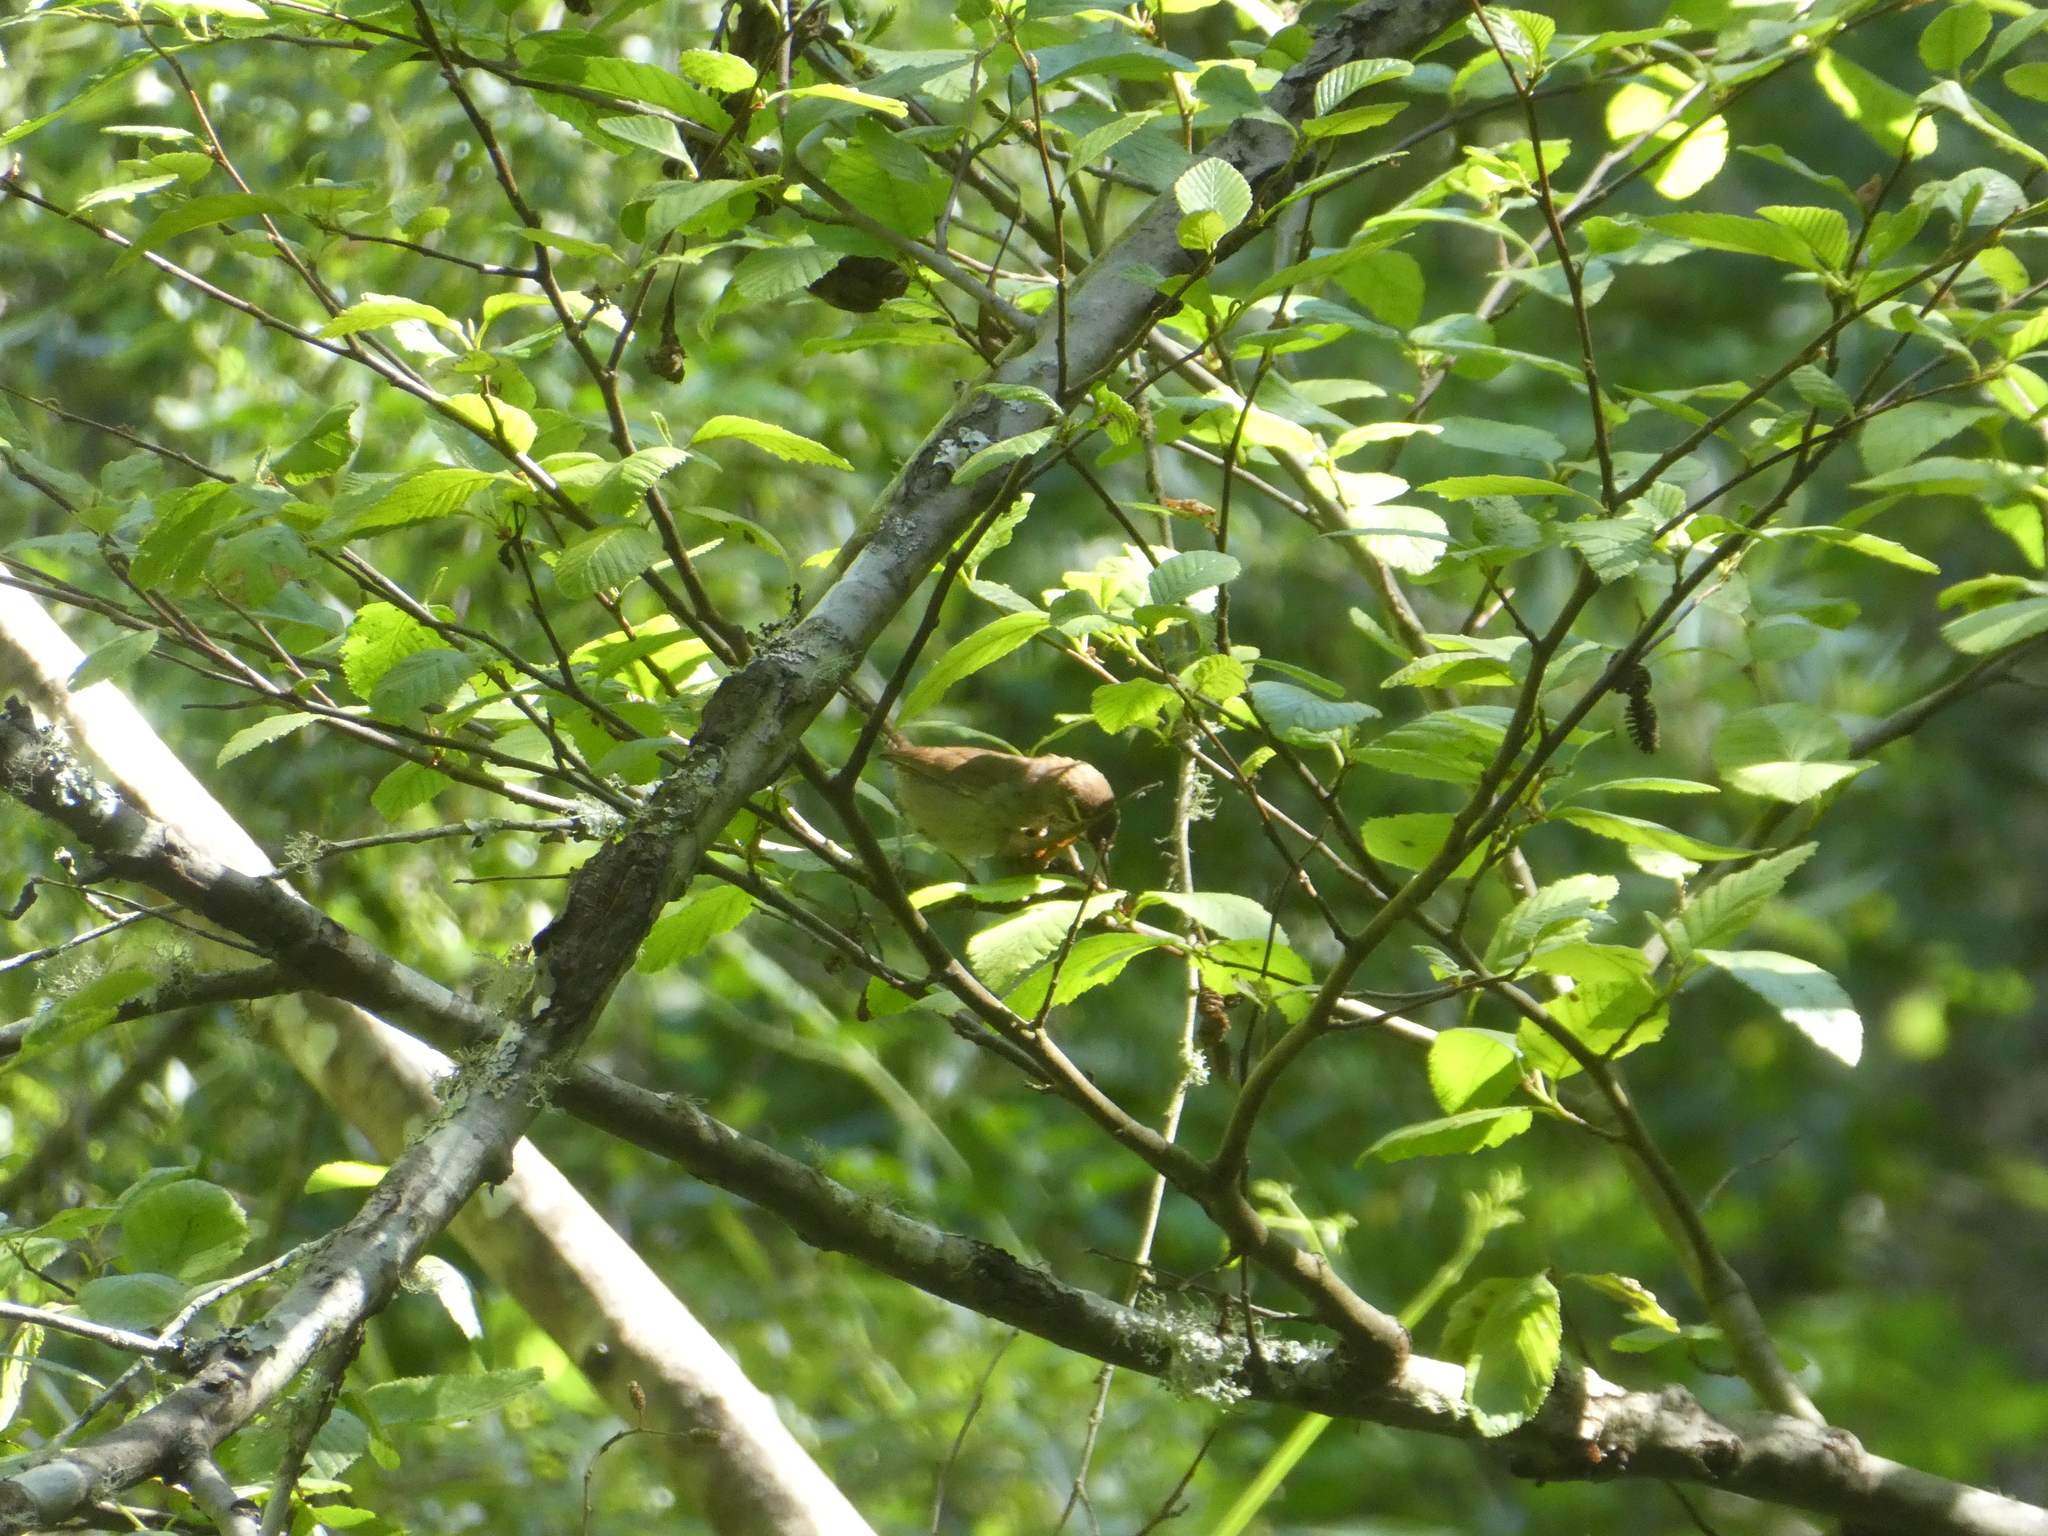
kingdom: Animalia
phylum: Chordata
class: Aves
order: Passeriformes
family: Troglodytidae
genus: Thryomanes
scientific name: Thryomanes bewickii
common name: Bewick's wren
